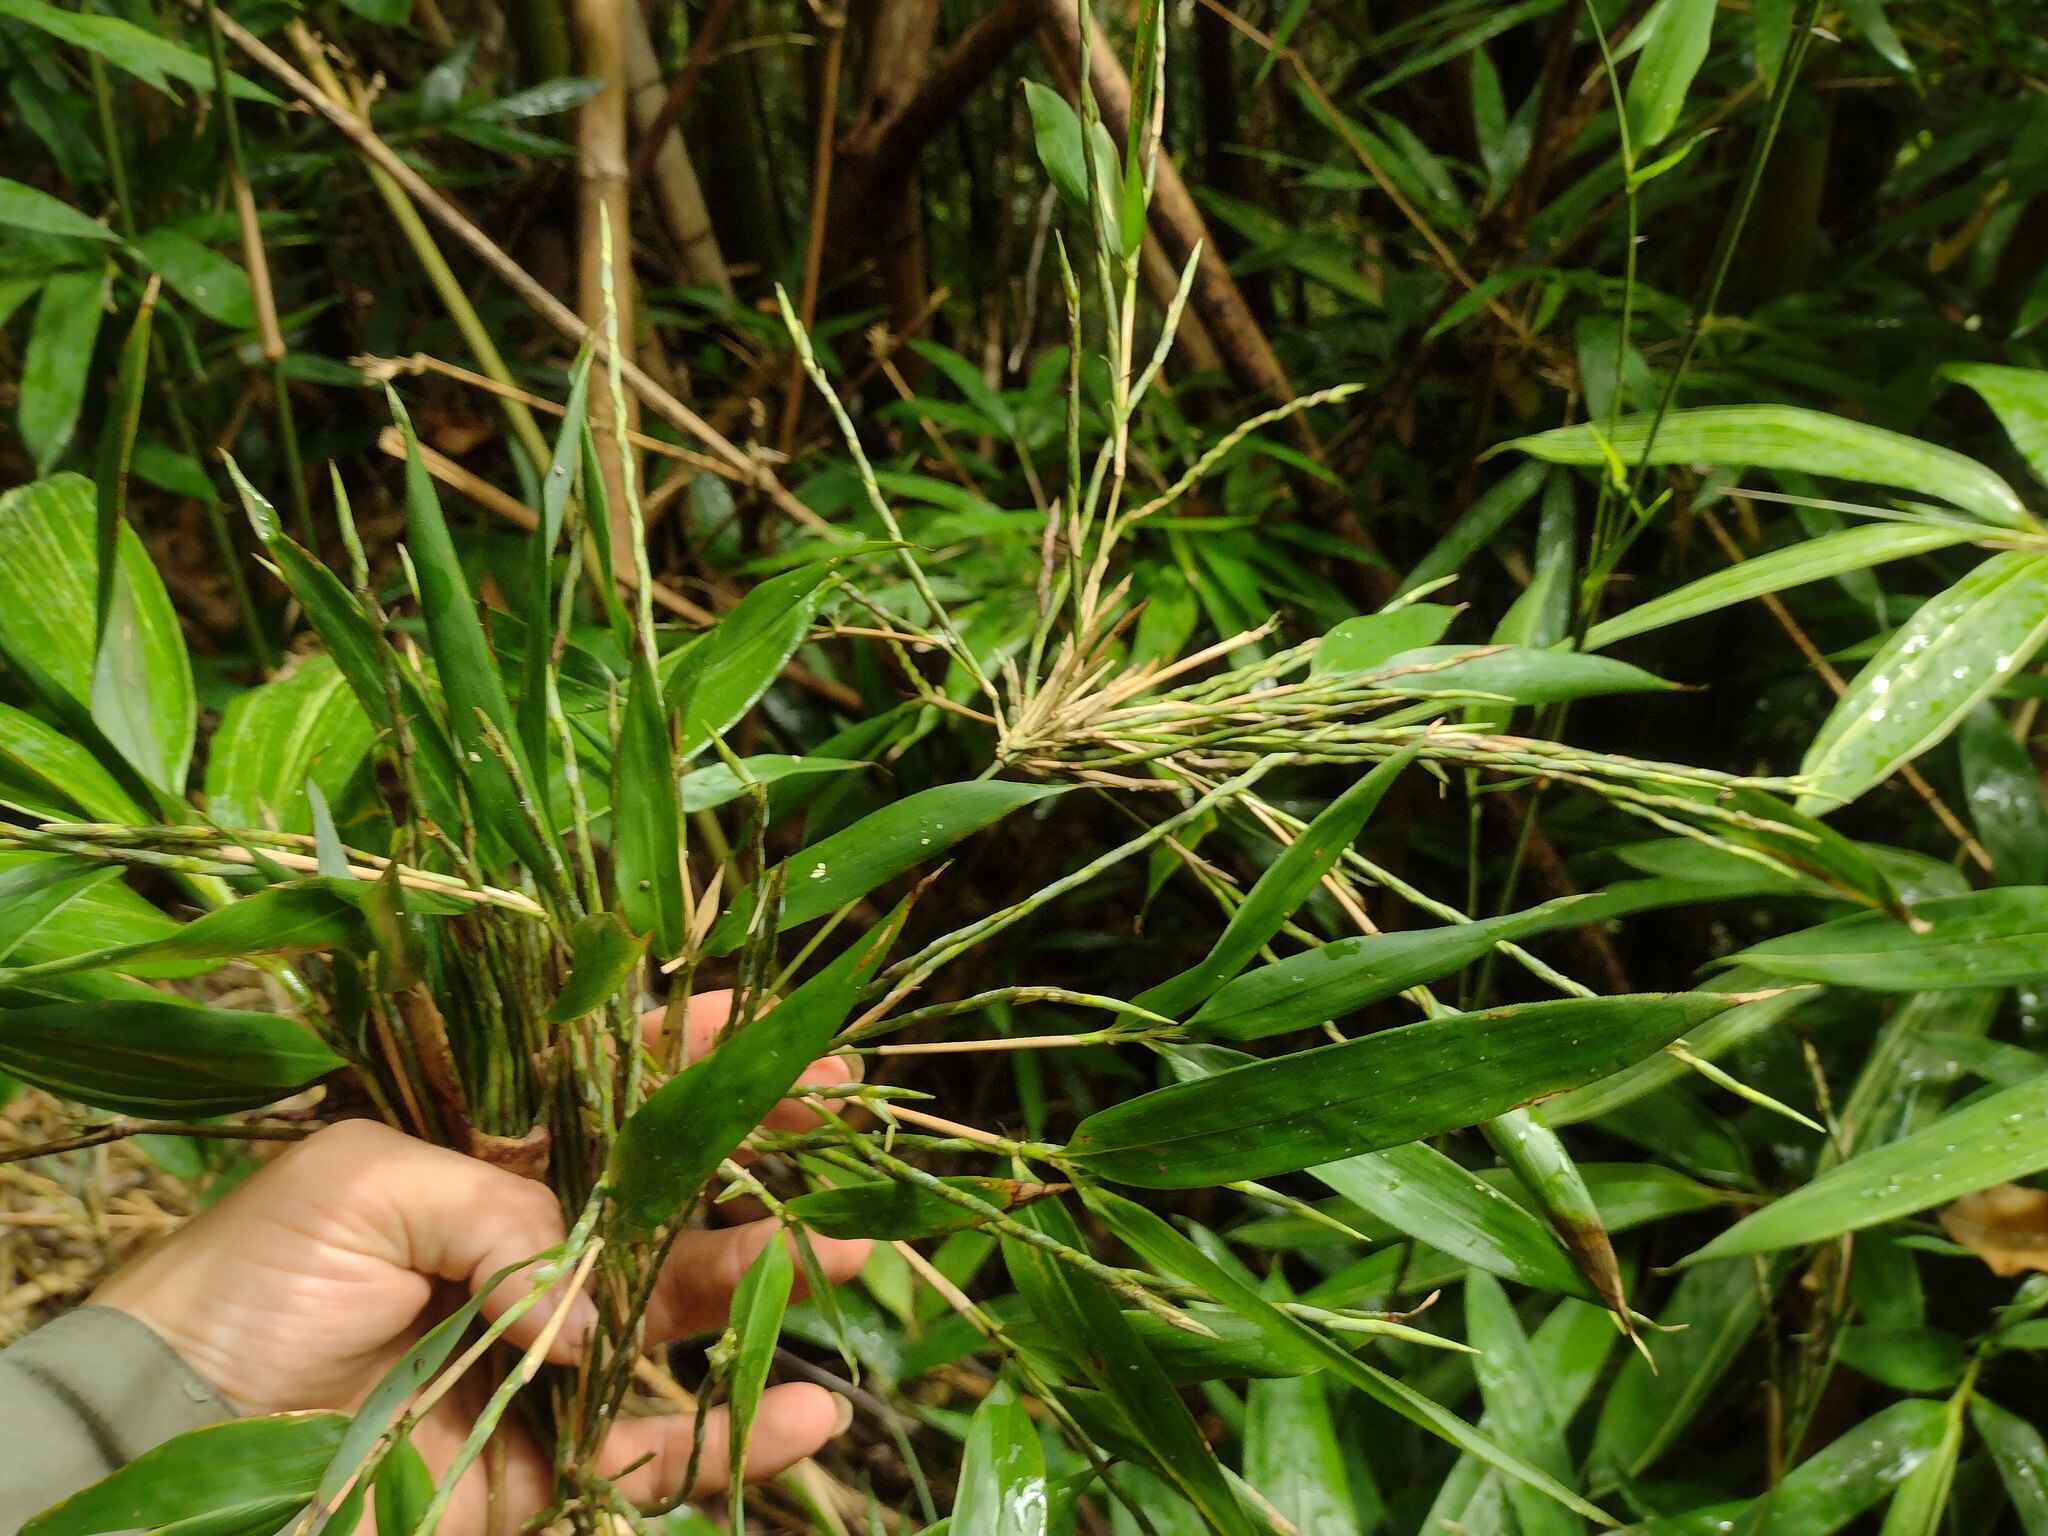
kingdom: Plantae
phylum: Tracheophyta
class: Liliopsida
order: Poales
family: Poaceae
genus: Phyllostachys
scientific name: Phyllostachys nigra
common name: Black bamboo
